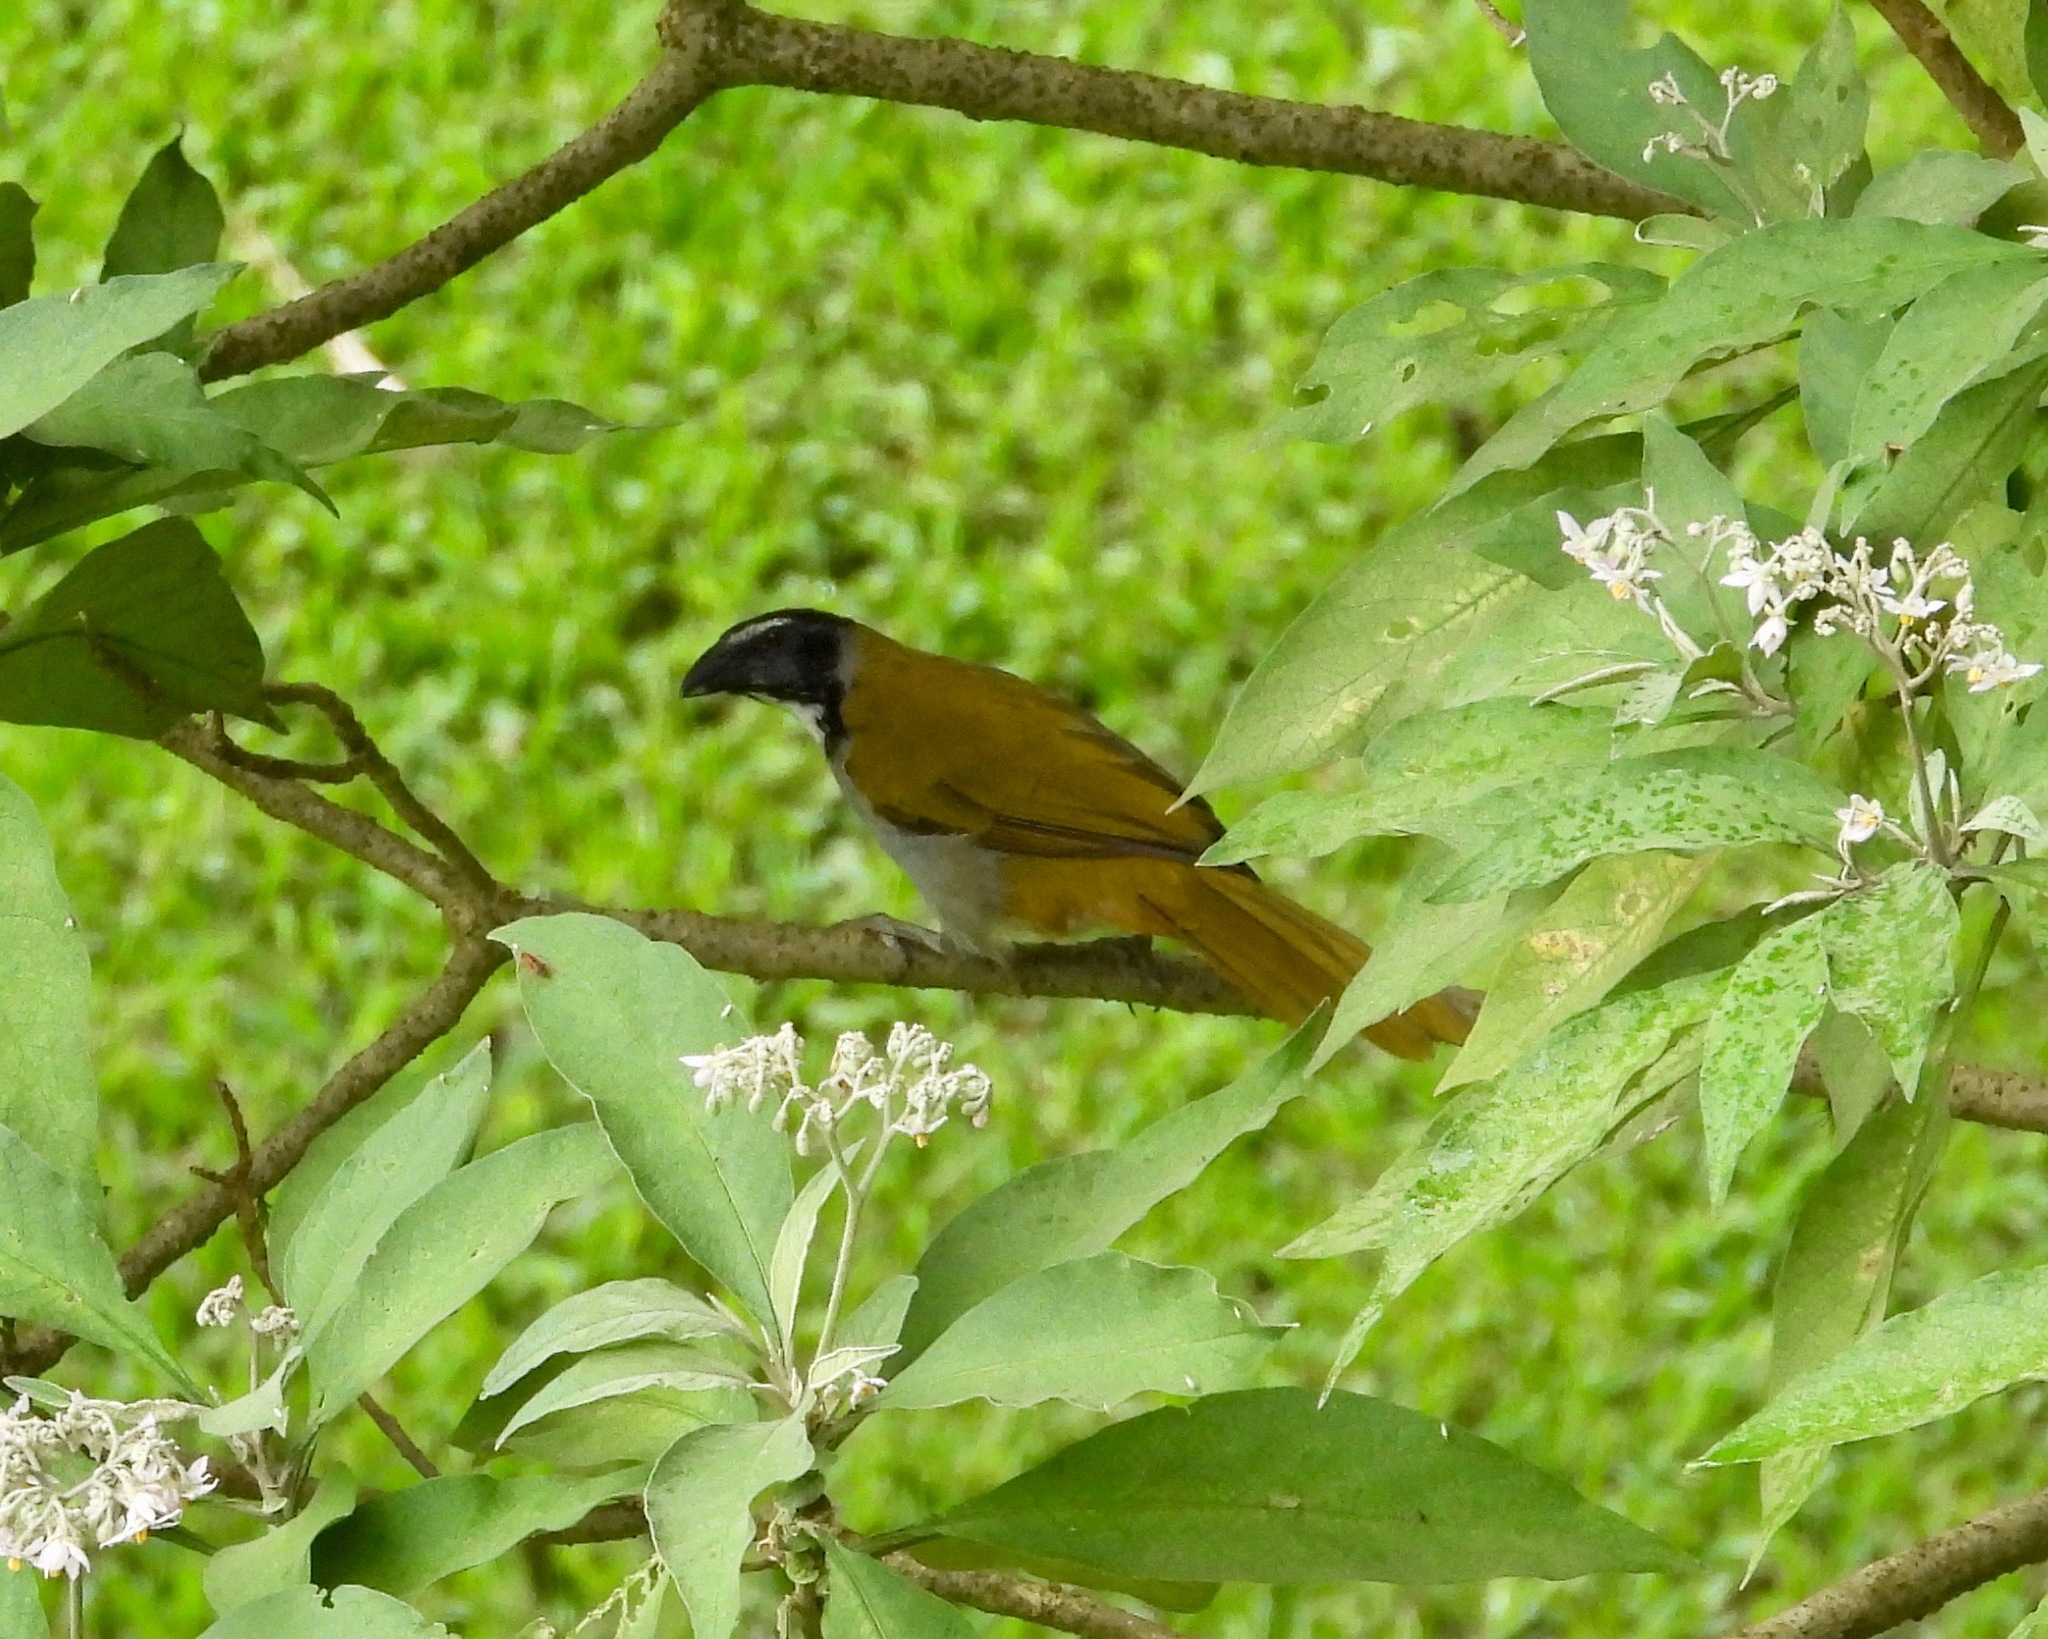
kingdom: Animalia
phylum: Chordata
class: Aves
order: Passeriformes
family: Thraupidae
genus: Saltator
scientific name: Saltator atriceps
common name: Black-headed saltator
